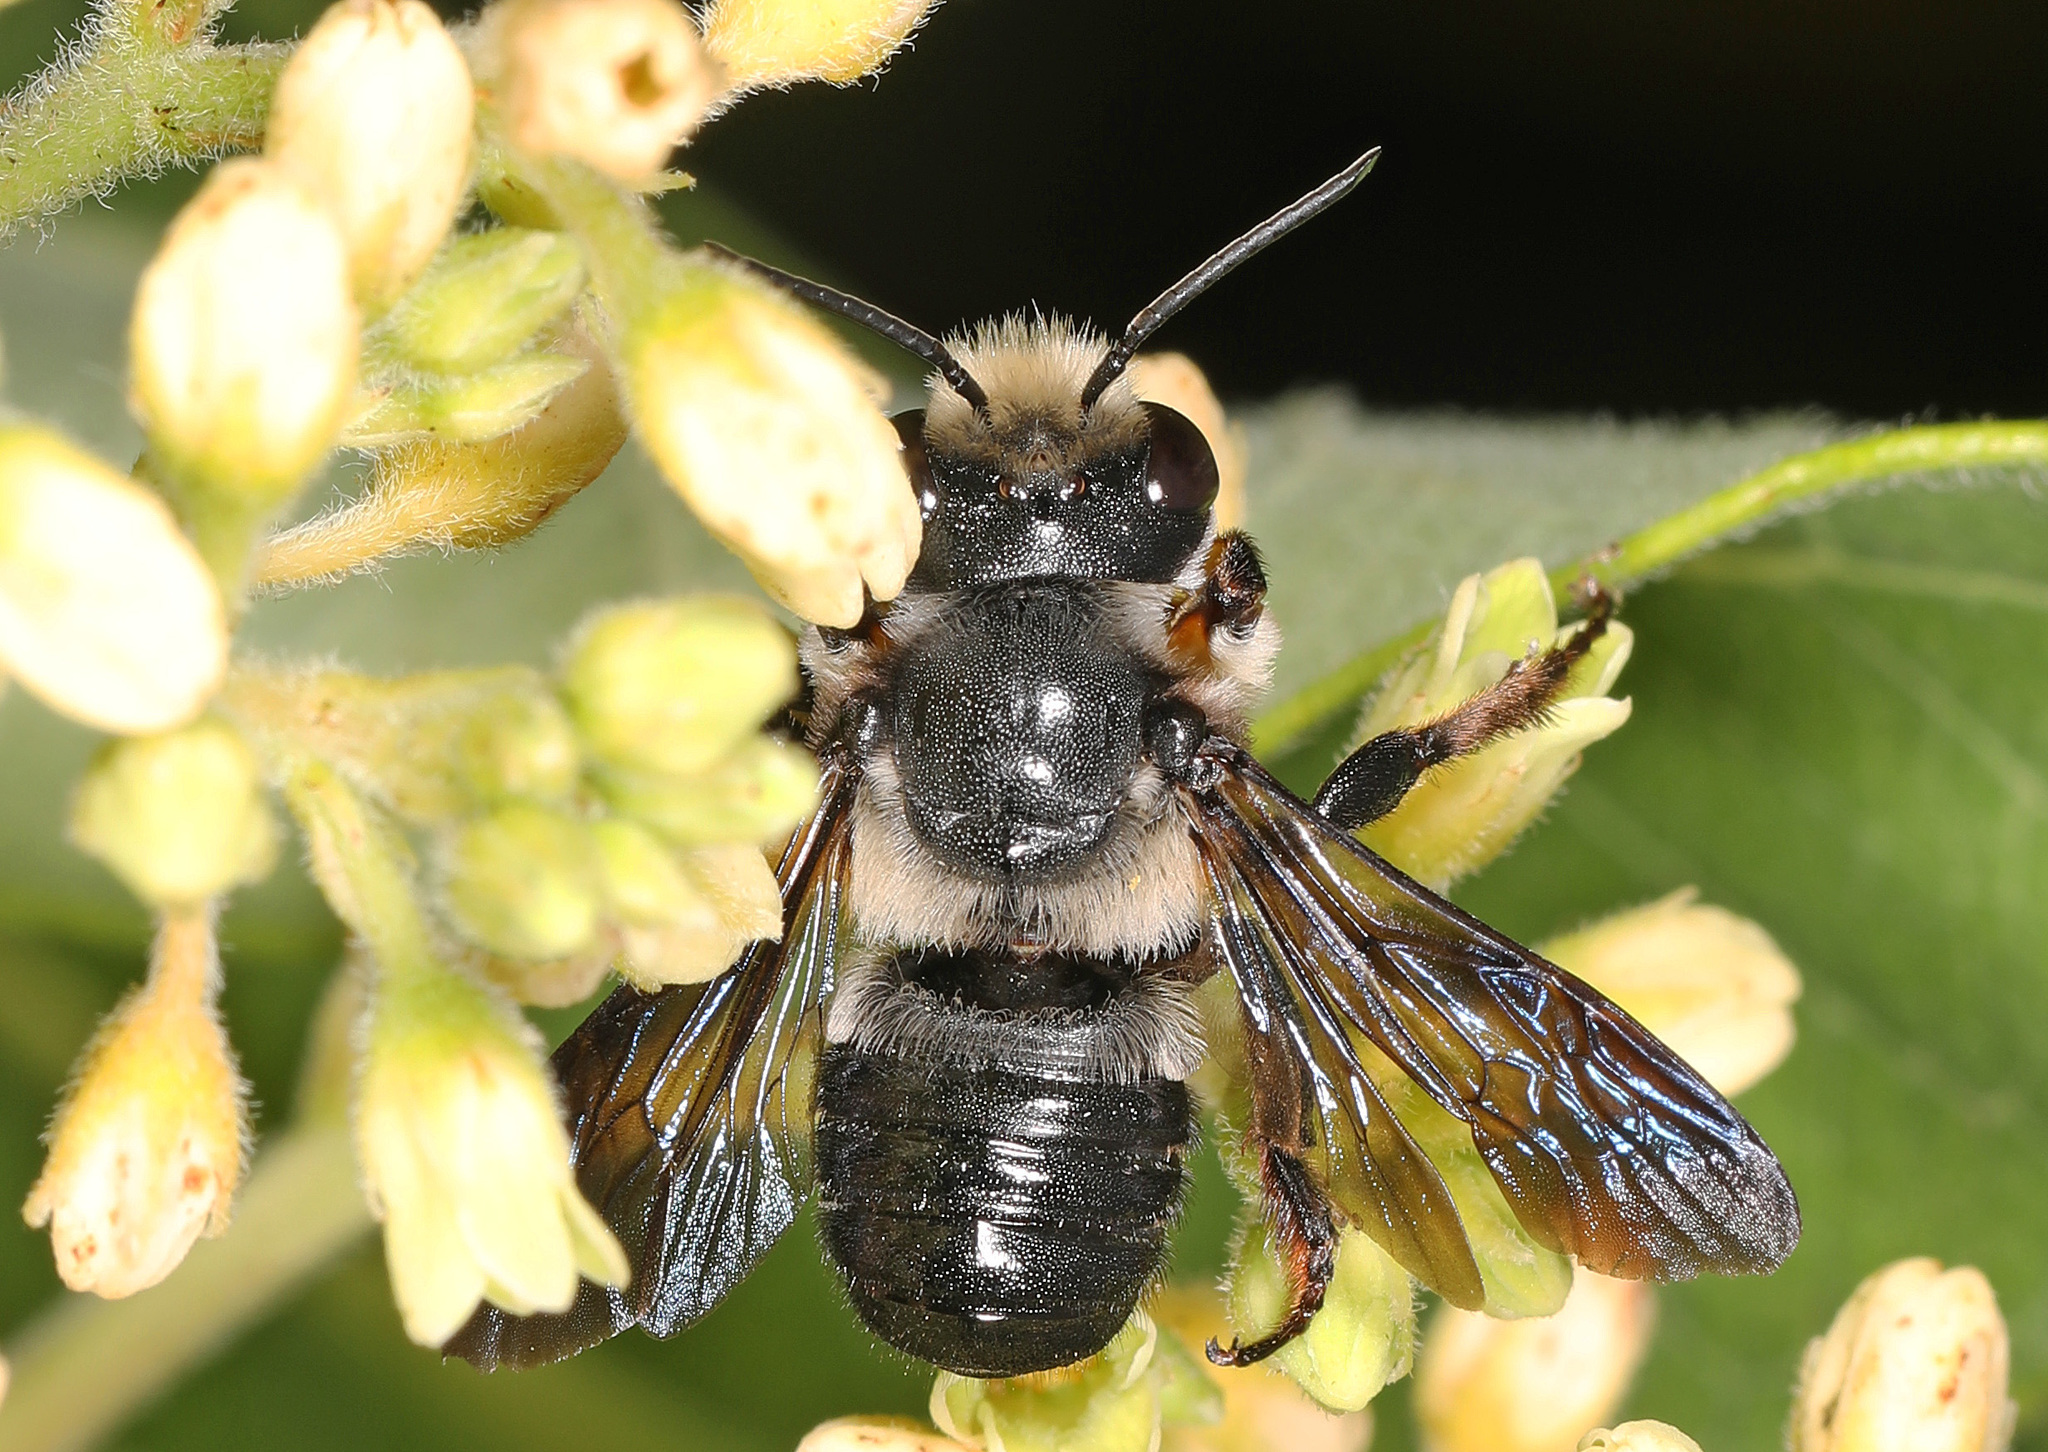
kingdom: Animalia
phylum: Arthropoda
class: Insecta
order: Hymenoptera
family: Megachilidae
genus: Megachile
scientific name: Megachile xylocopoides
